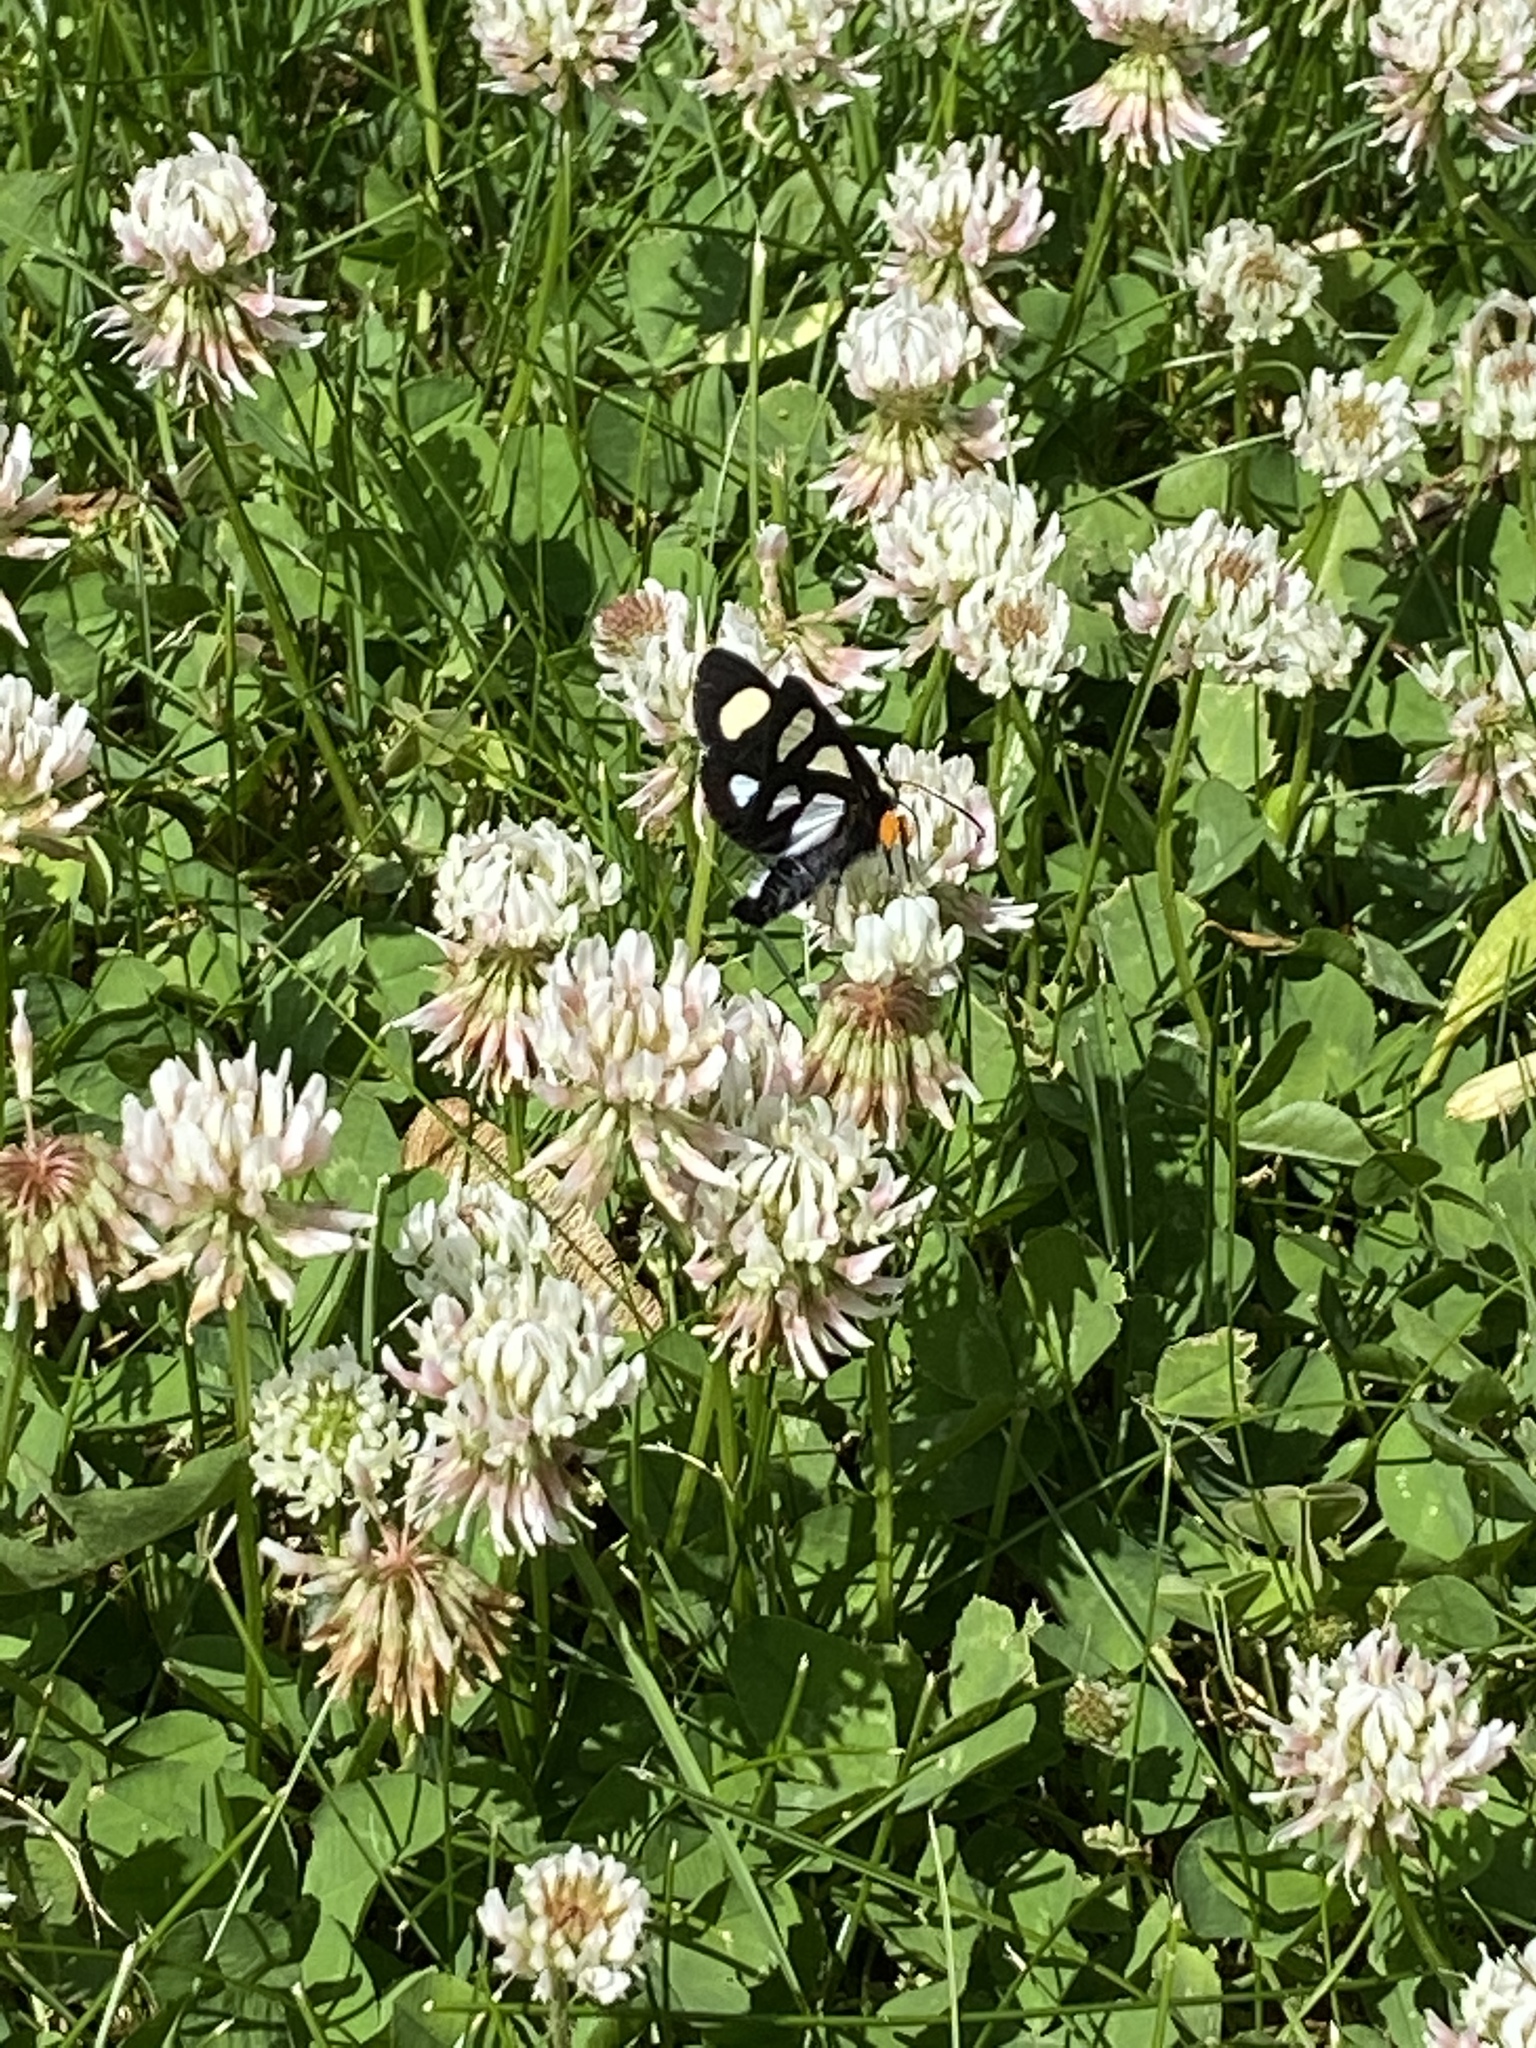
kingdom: Animalia
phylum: Arthropoda
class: Insecta
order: Lepidoptera
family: Noctuidae
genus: Alypia
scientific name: Alypia octomaculata
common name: Eight-spotted forester
